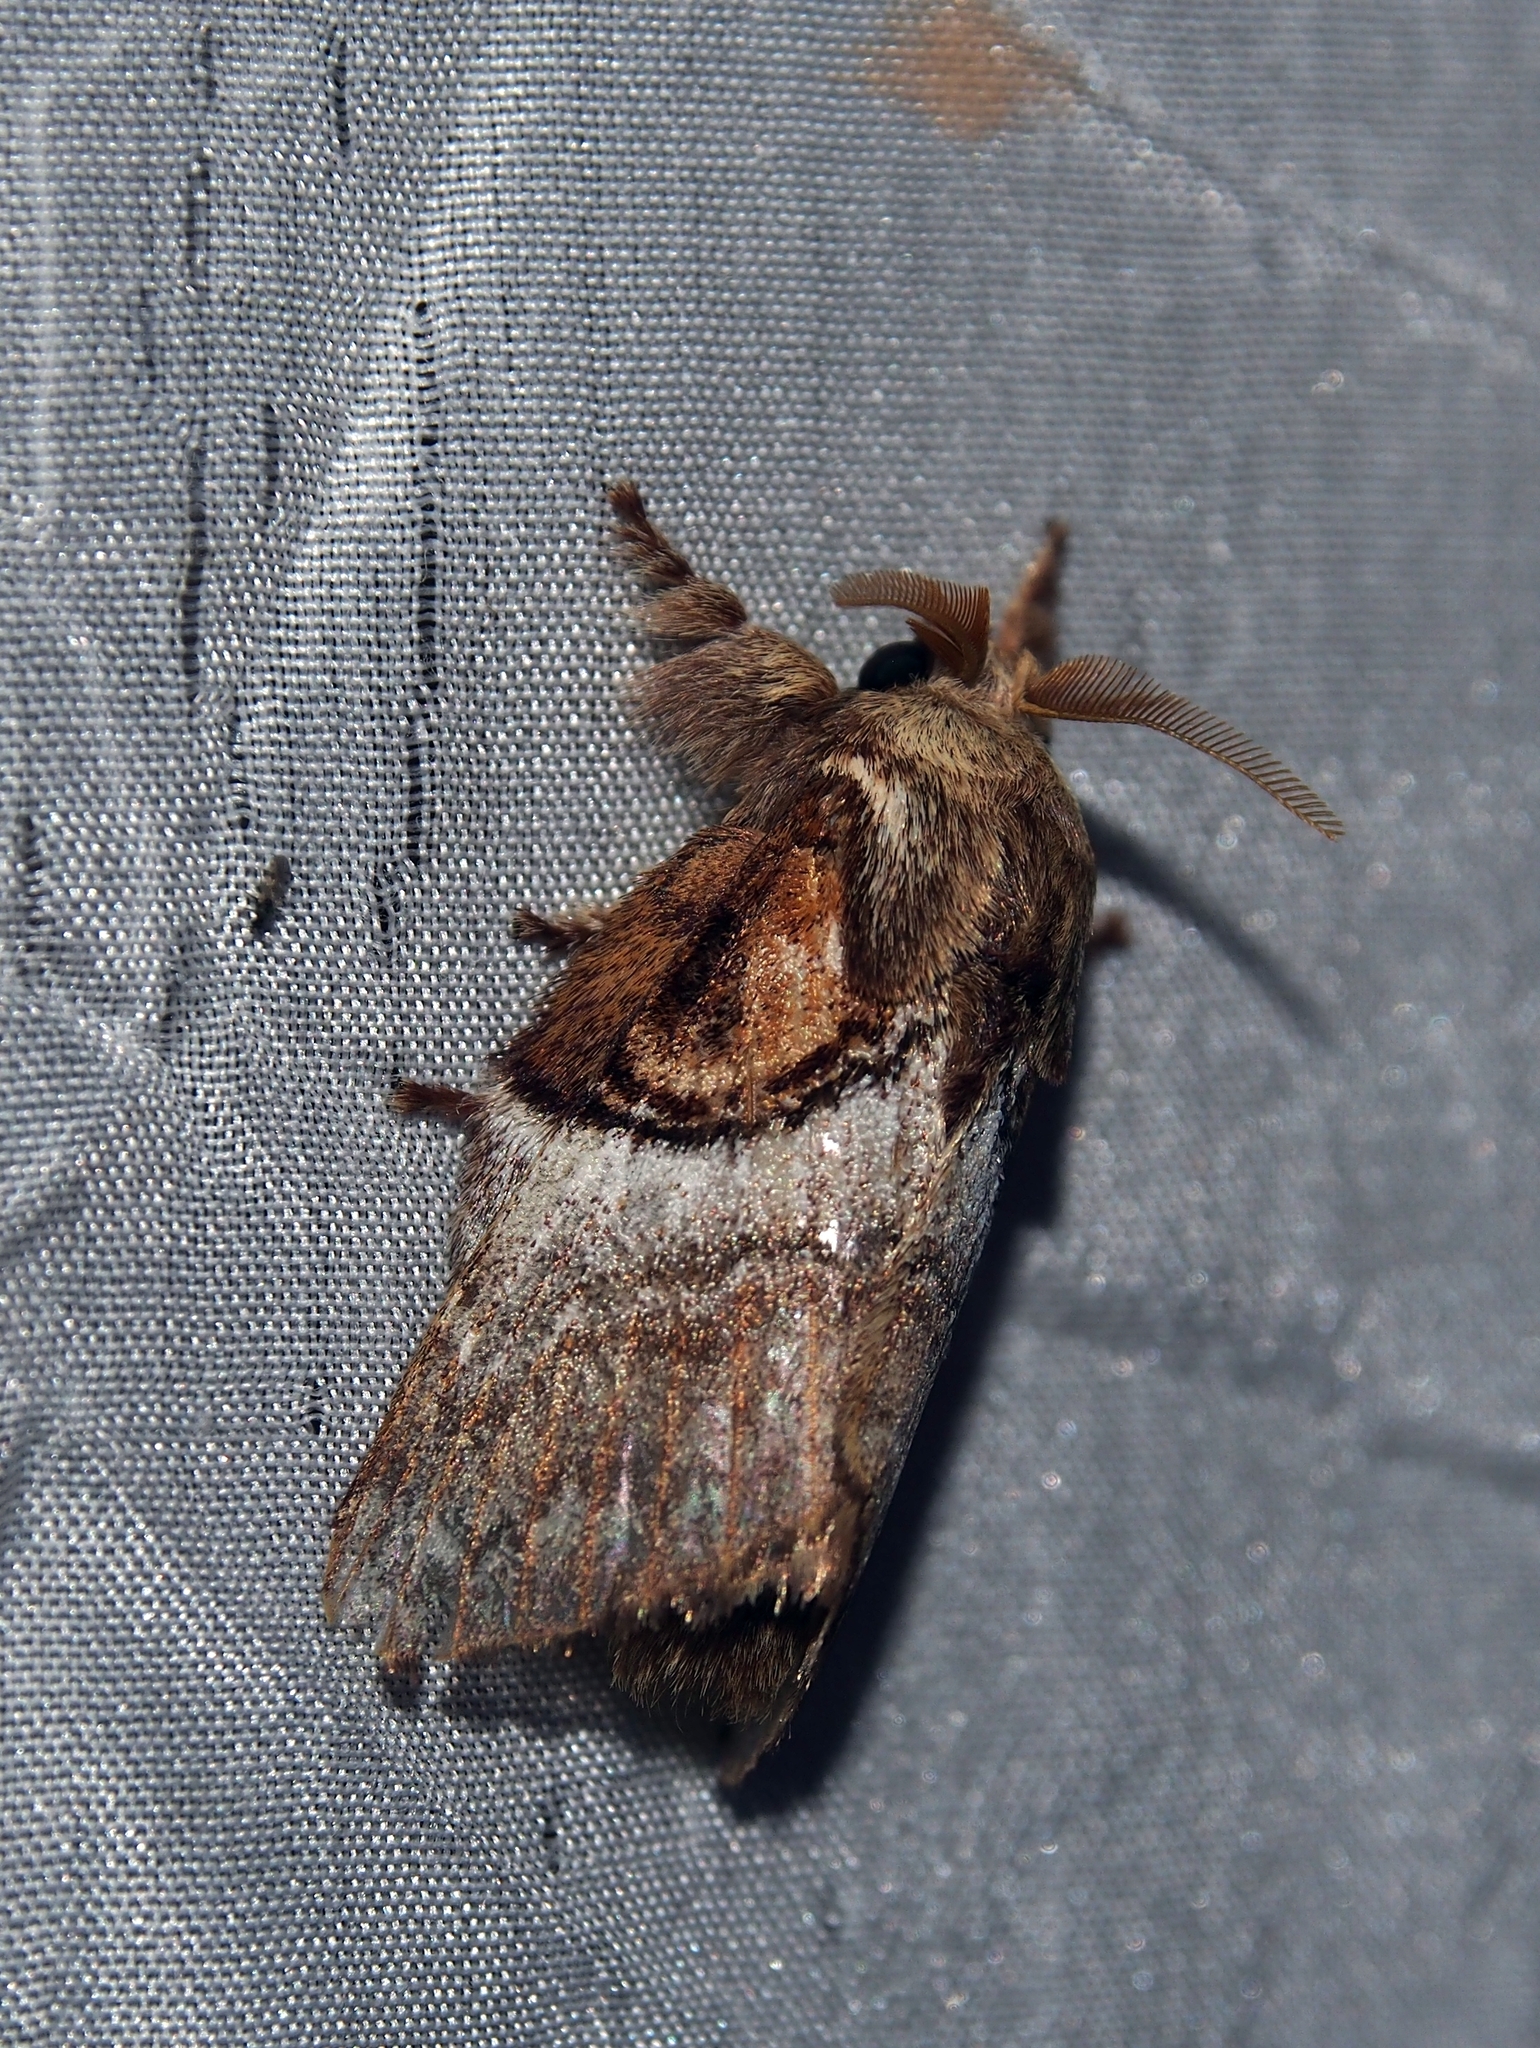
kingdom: Animalia
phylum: Arthropoda
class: Insecta
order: Lepidoptera
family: Lasiocampidae
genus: Euglyphis
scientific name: Euglyphis poasia
